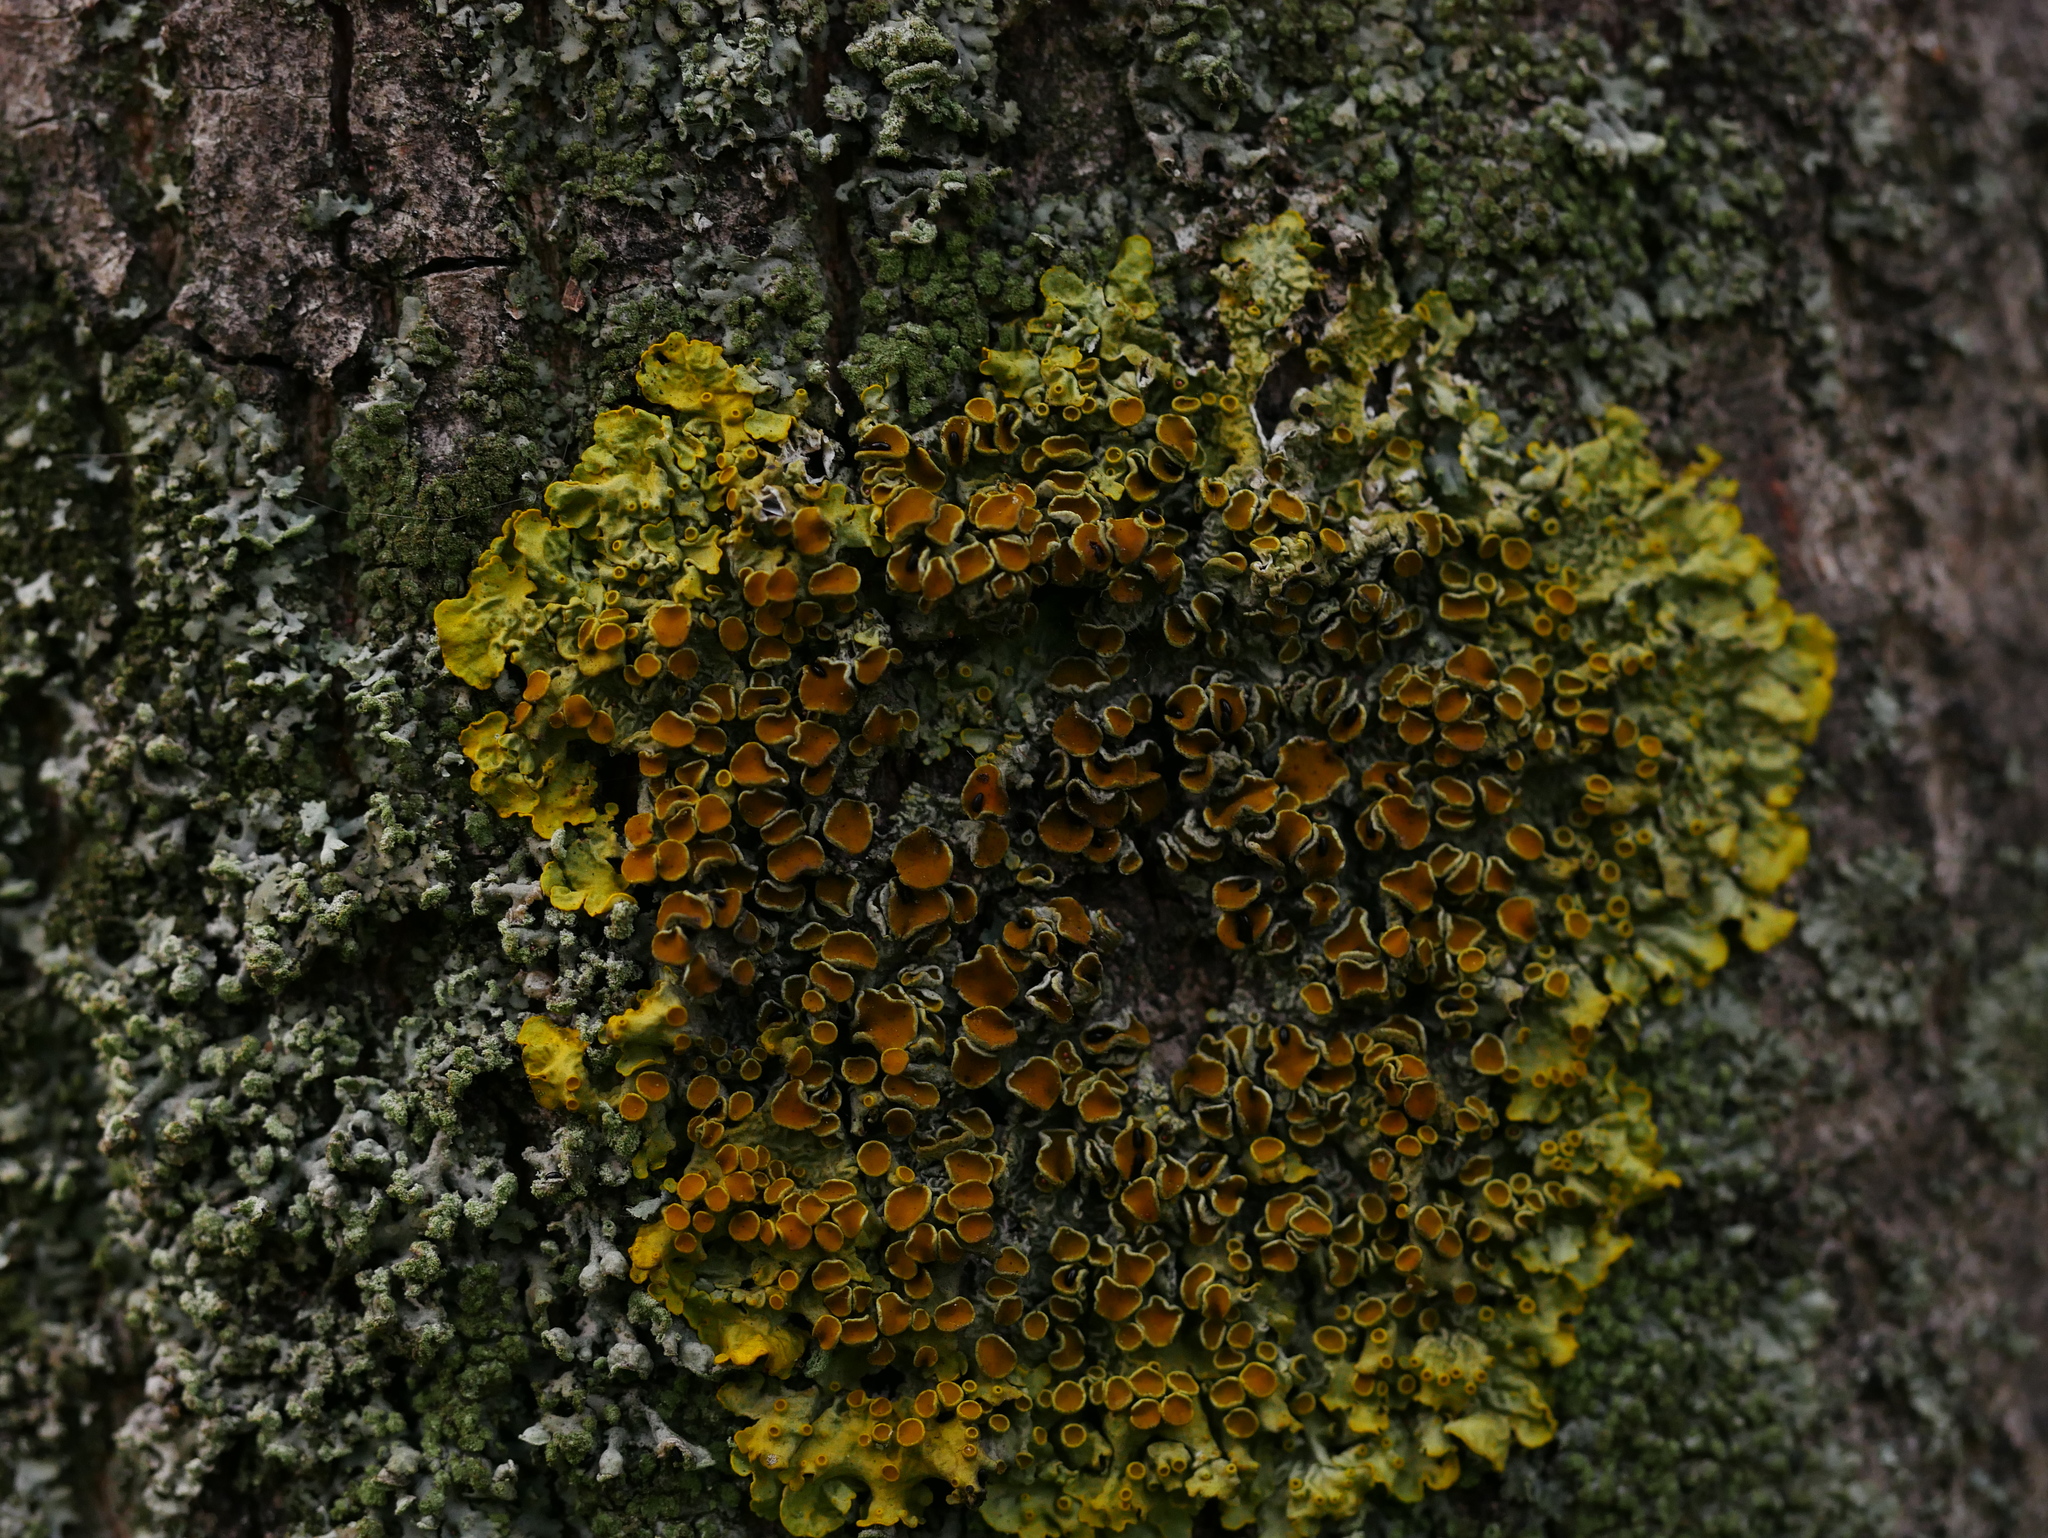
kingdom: Fungi
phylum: Ascomycota
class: Lecanoromycetes
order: Teloschistales
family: Teloschistaceae
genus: Xanthoria
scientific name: Xanthoria parietina
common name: Common orange lichen
